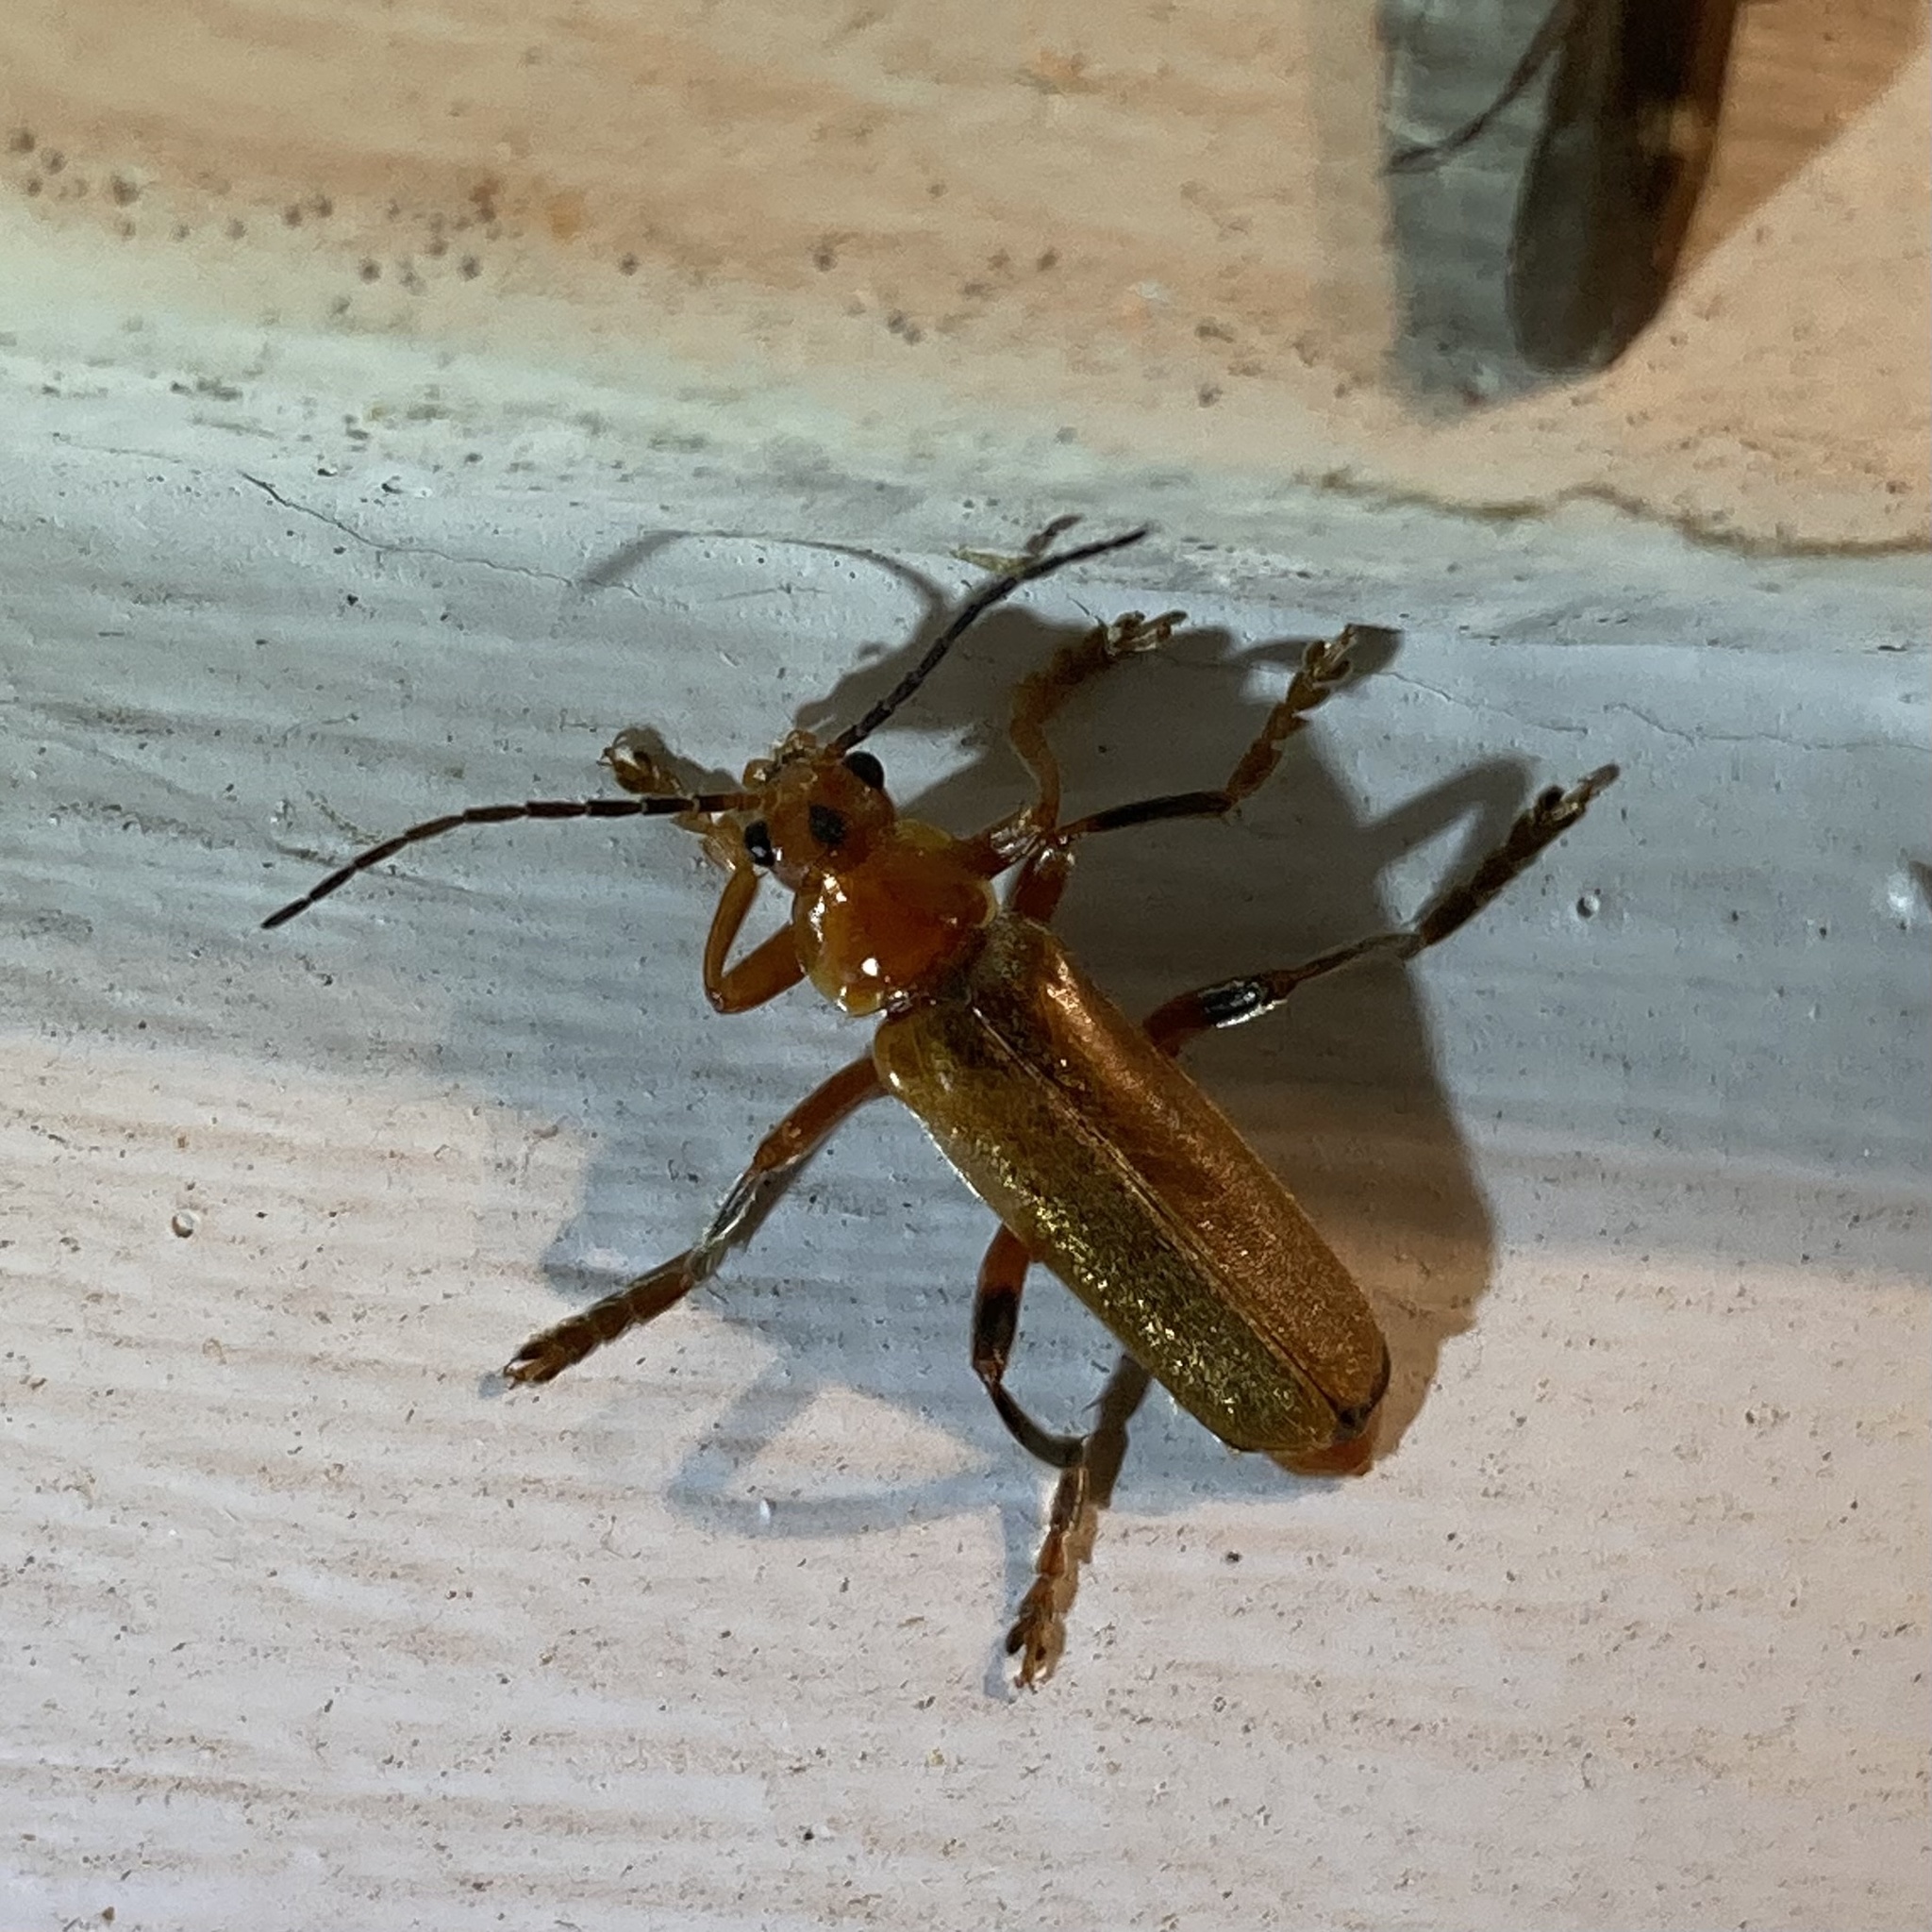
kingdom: Animalia
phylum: Arthropoda
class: Insecta
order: Coleoptera
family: Cantharidae
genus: Cantharis
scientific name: Cantharis livida
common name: Livid soldier beetle
